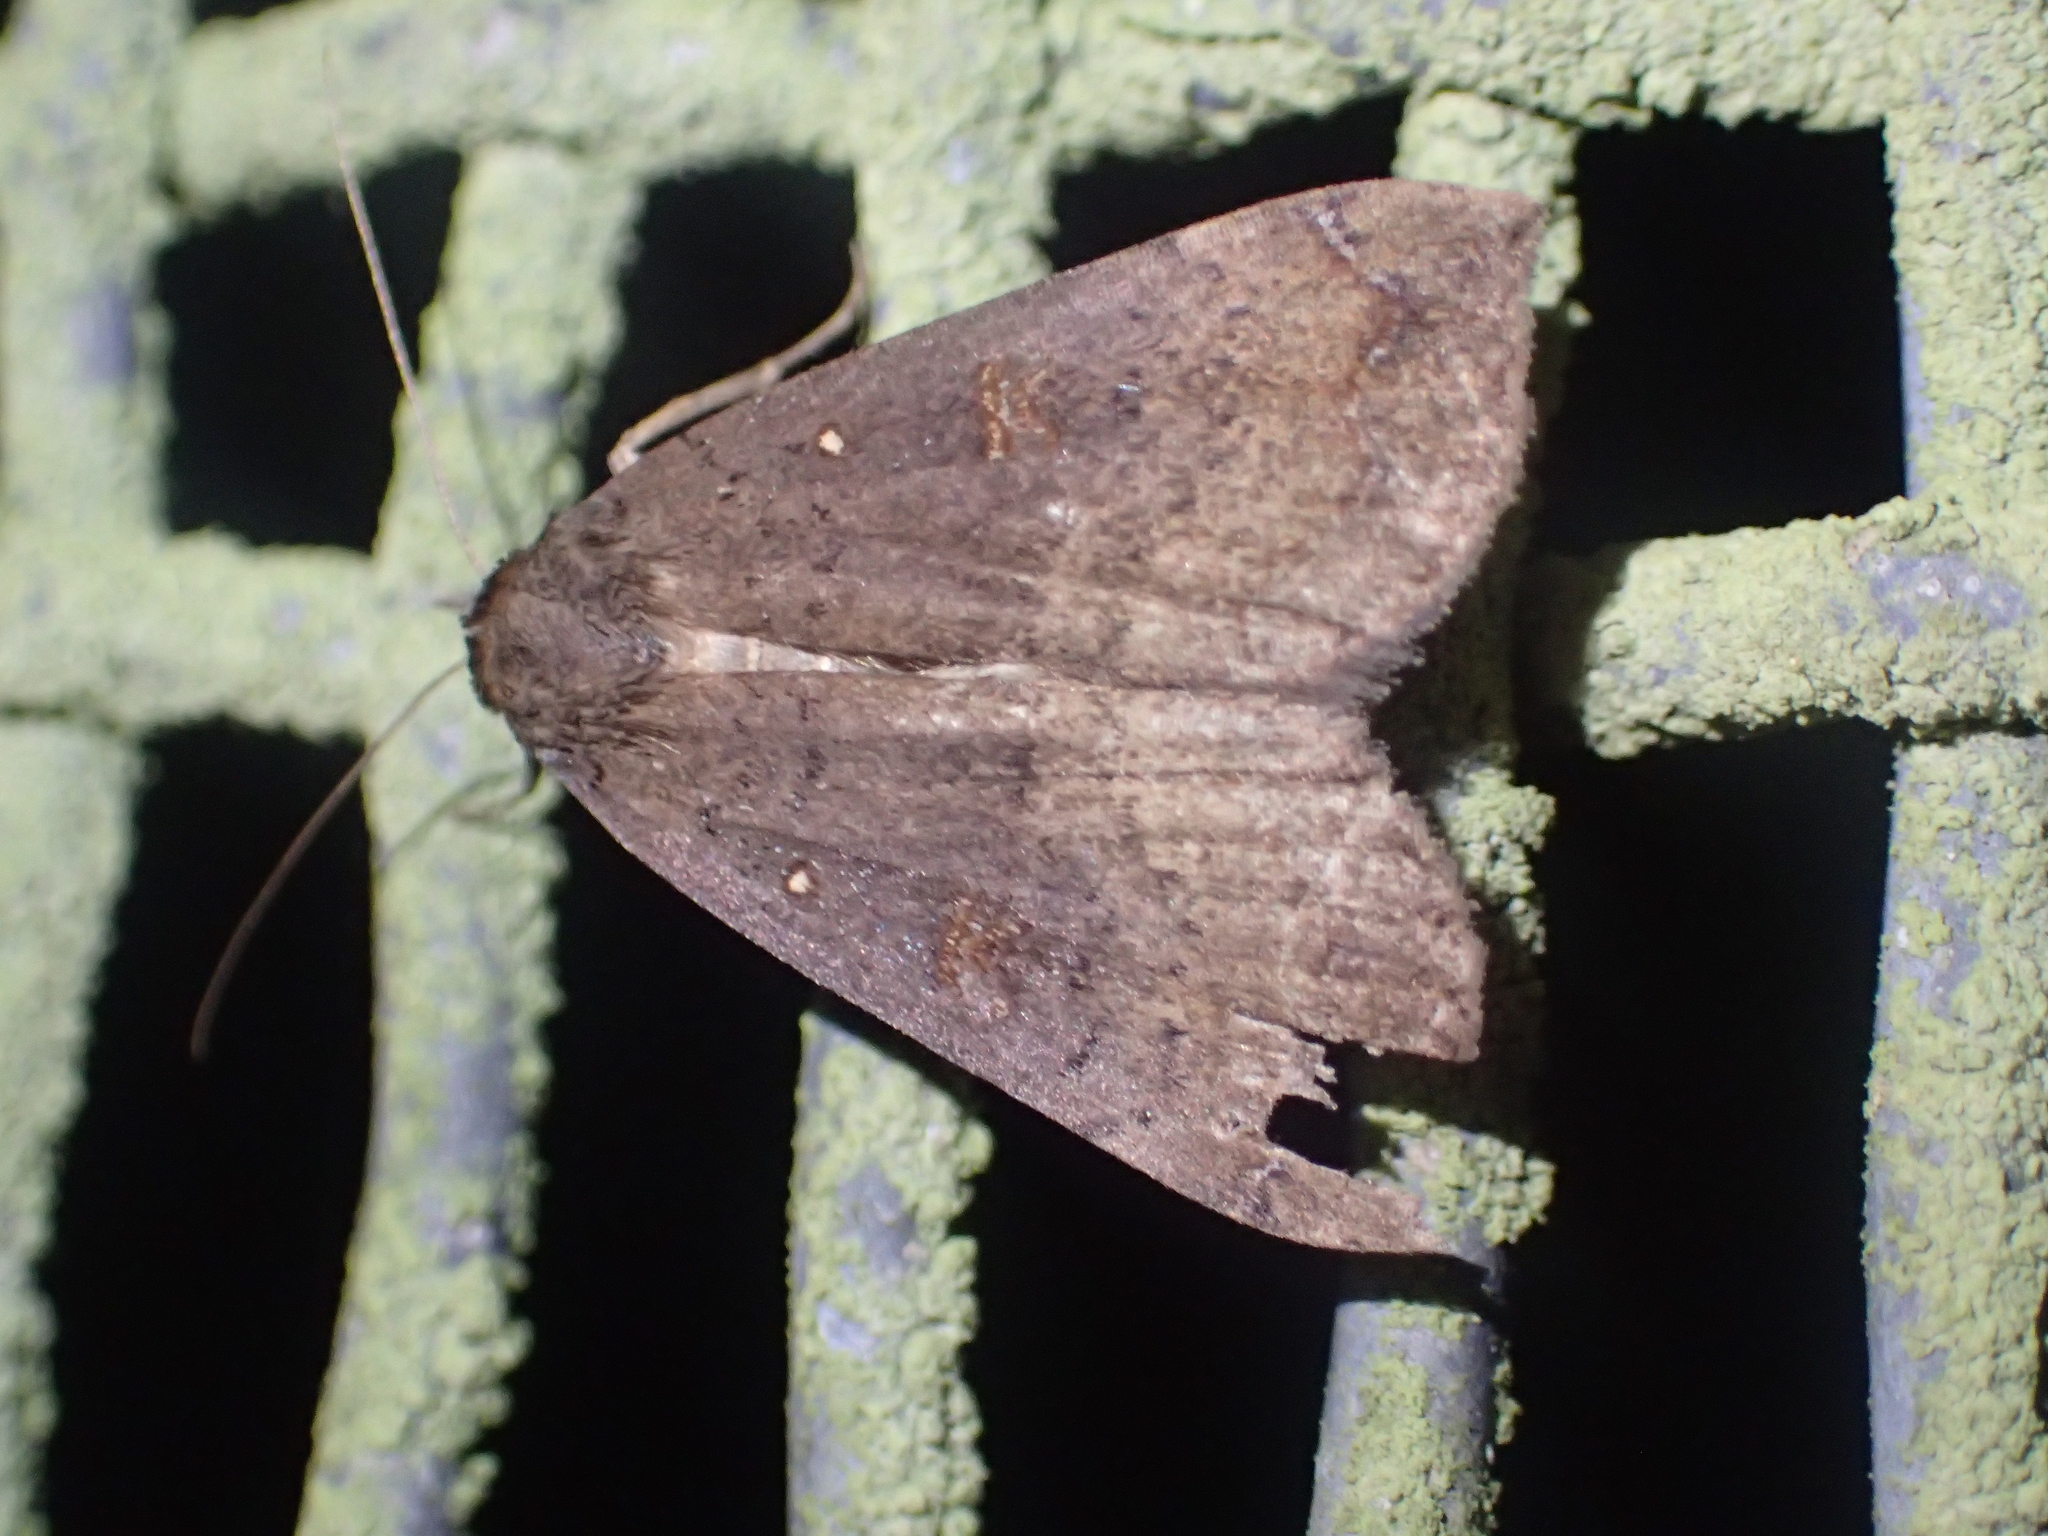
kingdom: Animalia
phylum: Arthropoda
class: Insecta
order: Lepidoptera
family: Erebidae
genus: Rhapsa
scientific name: Rhapsa scotosialis
